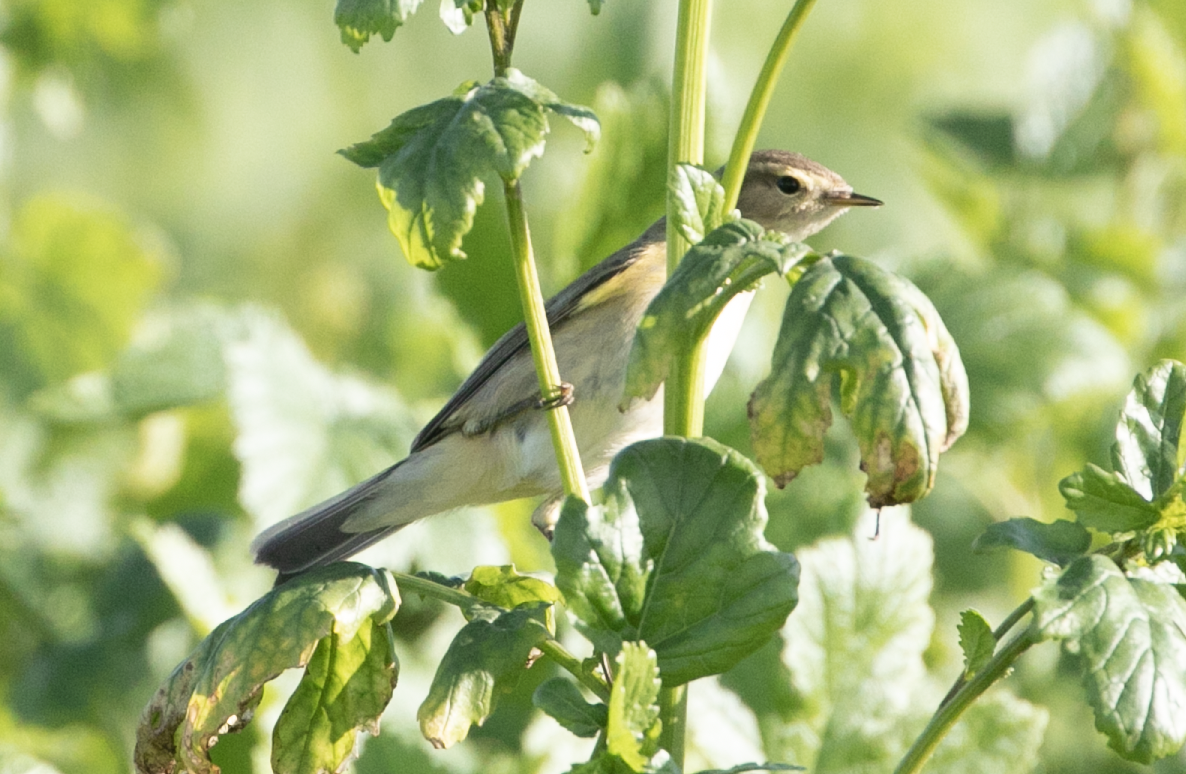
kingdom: Animalia
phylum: Chordata
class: Aves
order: Passeriformes
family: Phylloscopidae
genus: Phylloscopus
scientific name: Phylloscopus collybita
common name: Common chiffchaff
